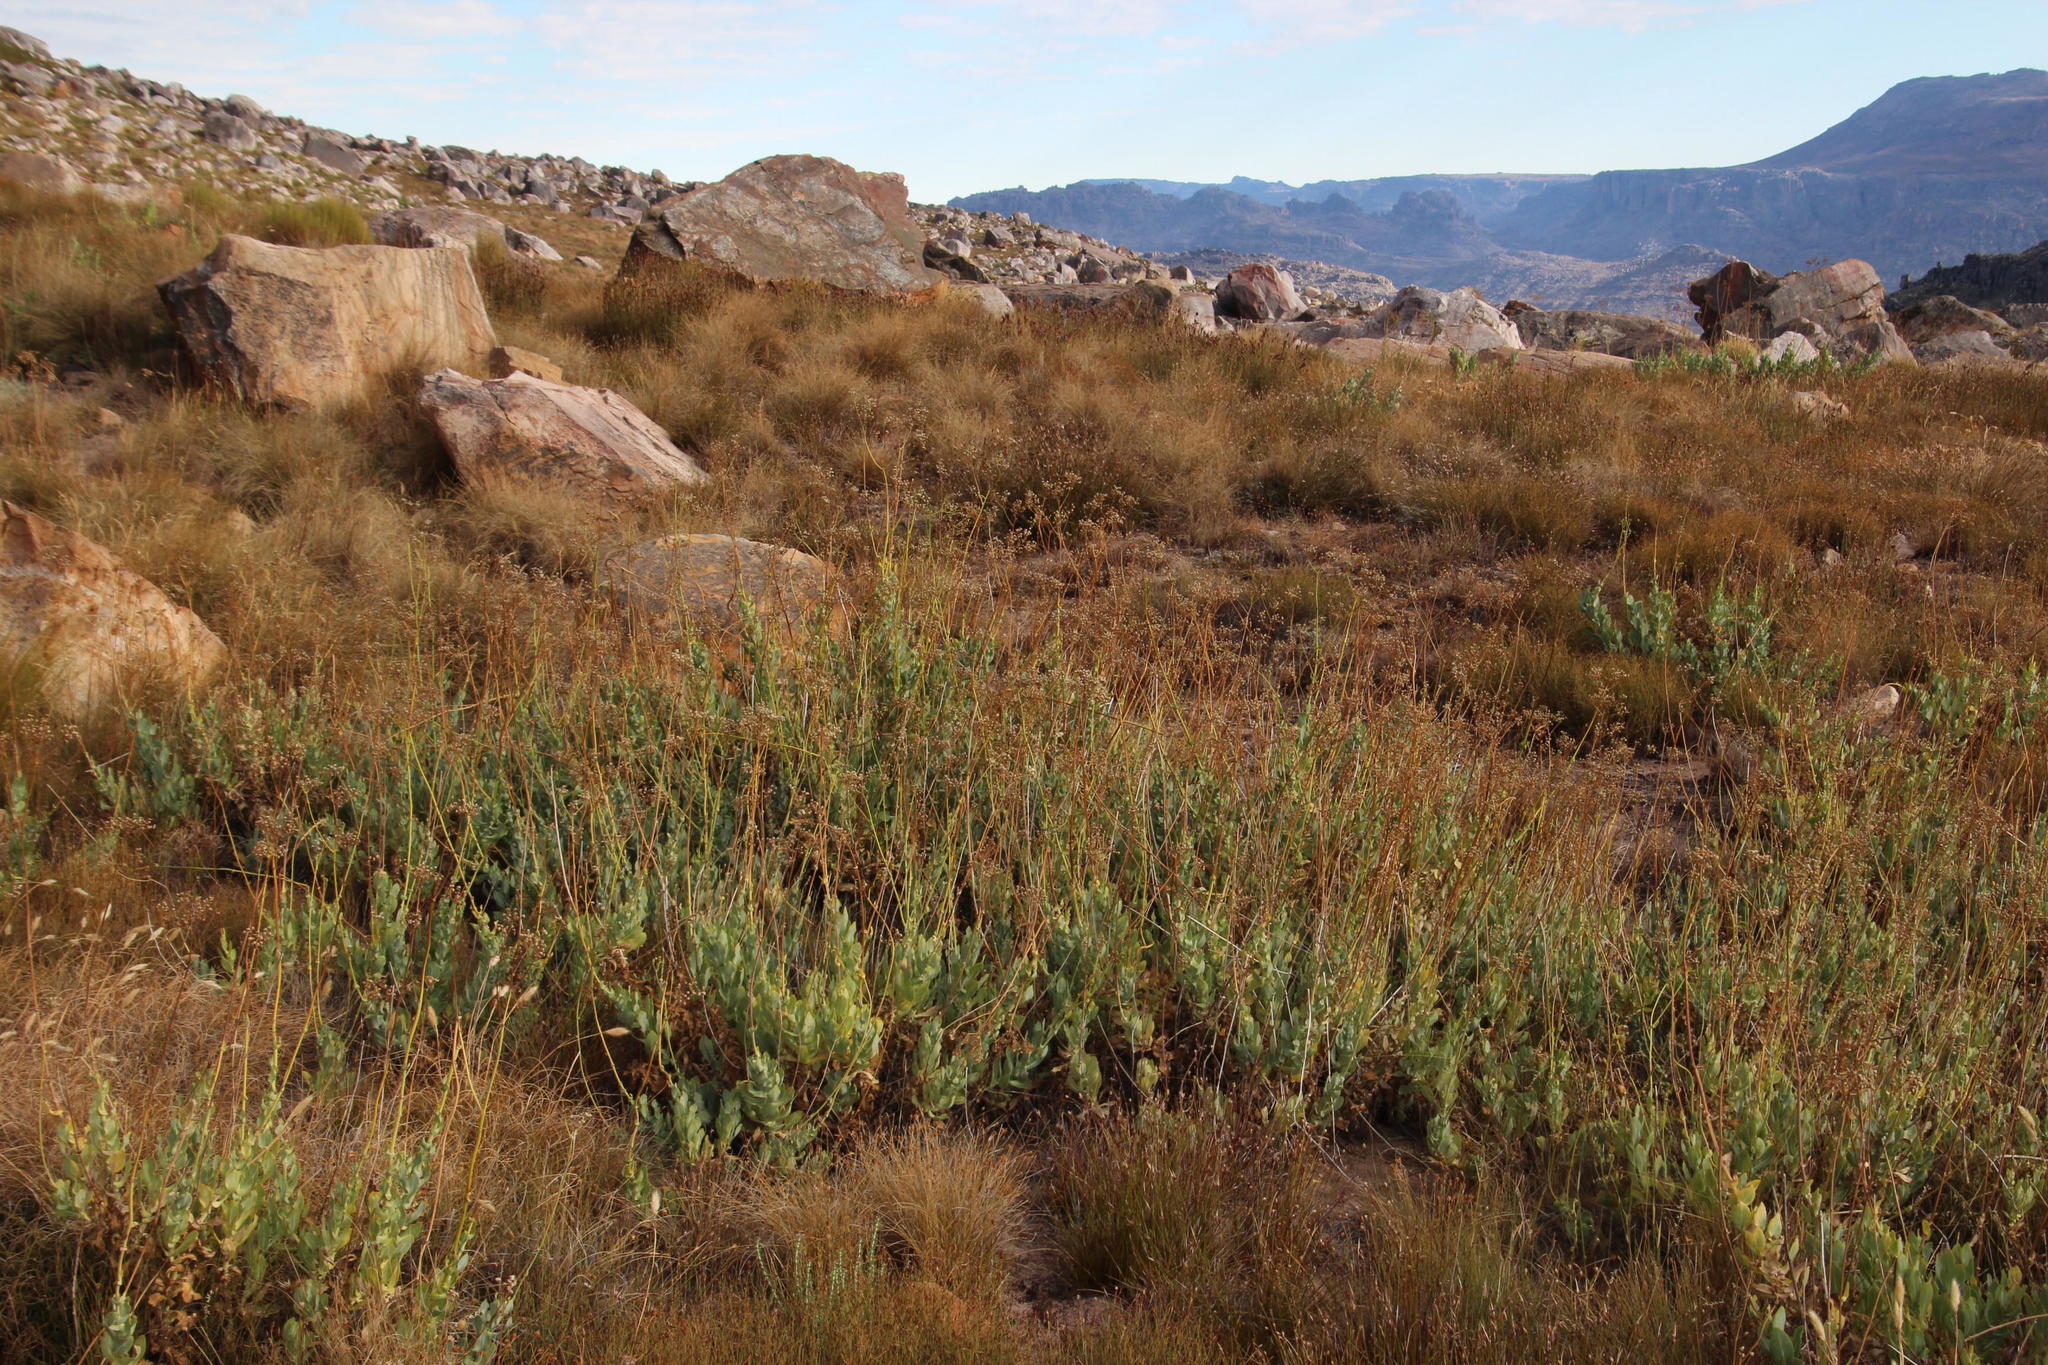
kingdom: Plantae
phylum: Tracheophyta
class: Magnoliopsida
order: Asterales
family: Asteraceae
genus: Othonna
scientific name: Othonna parviflora
